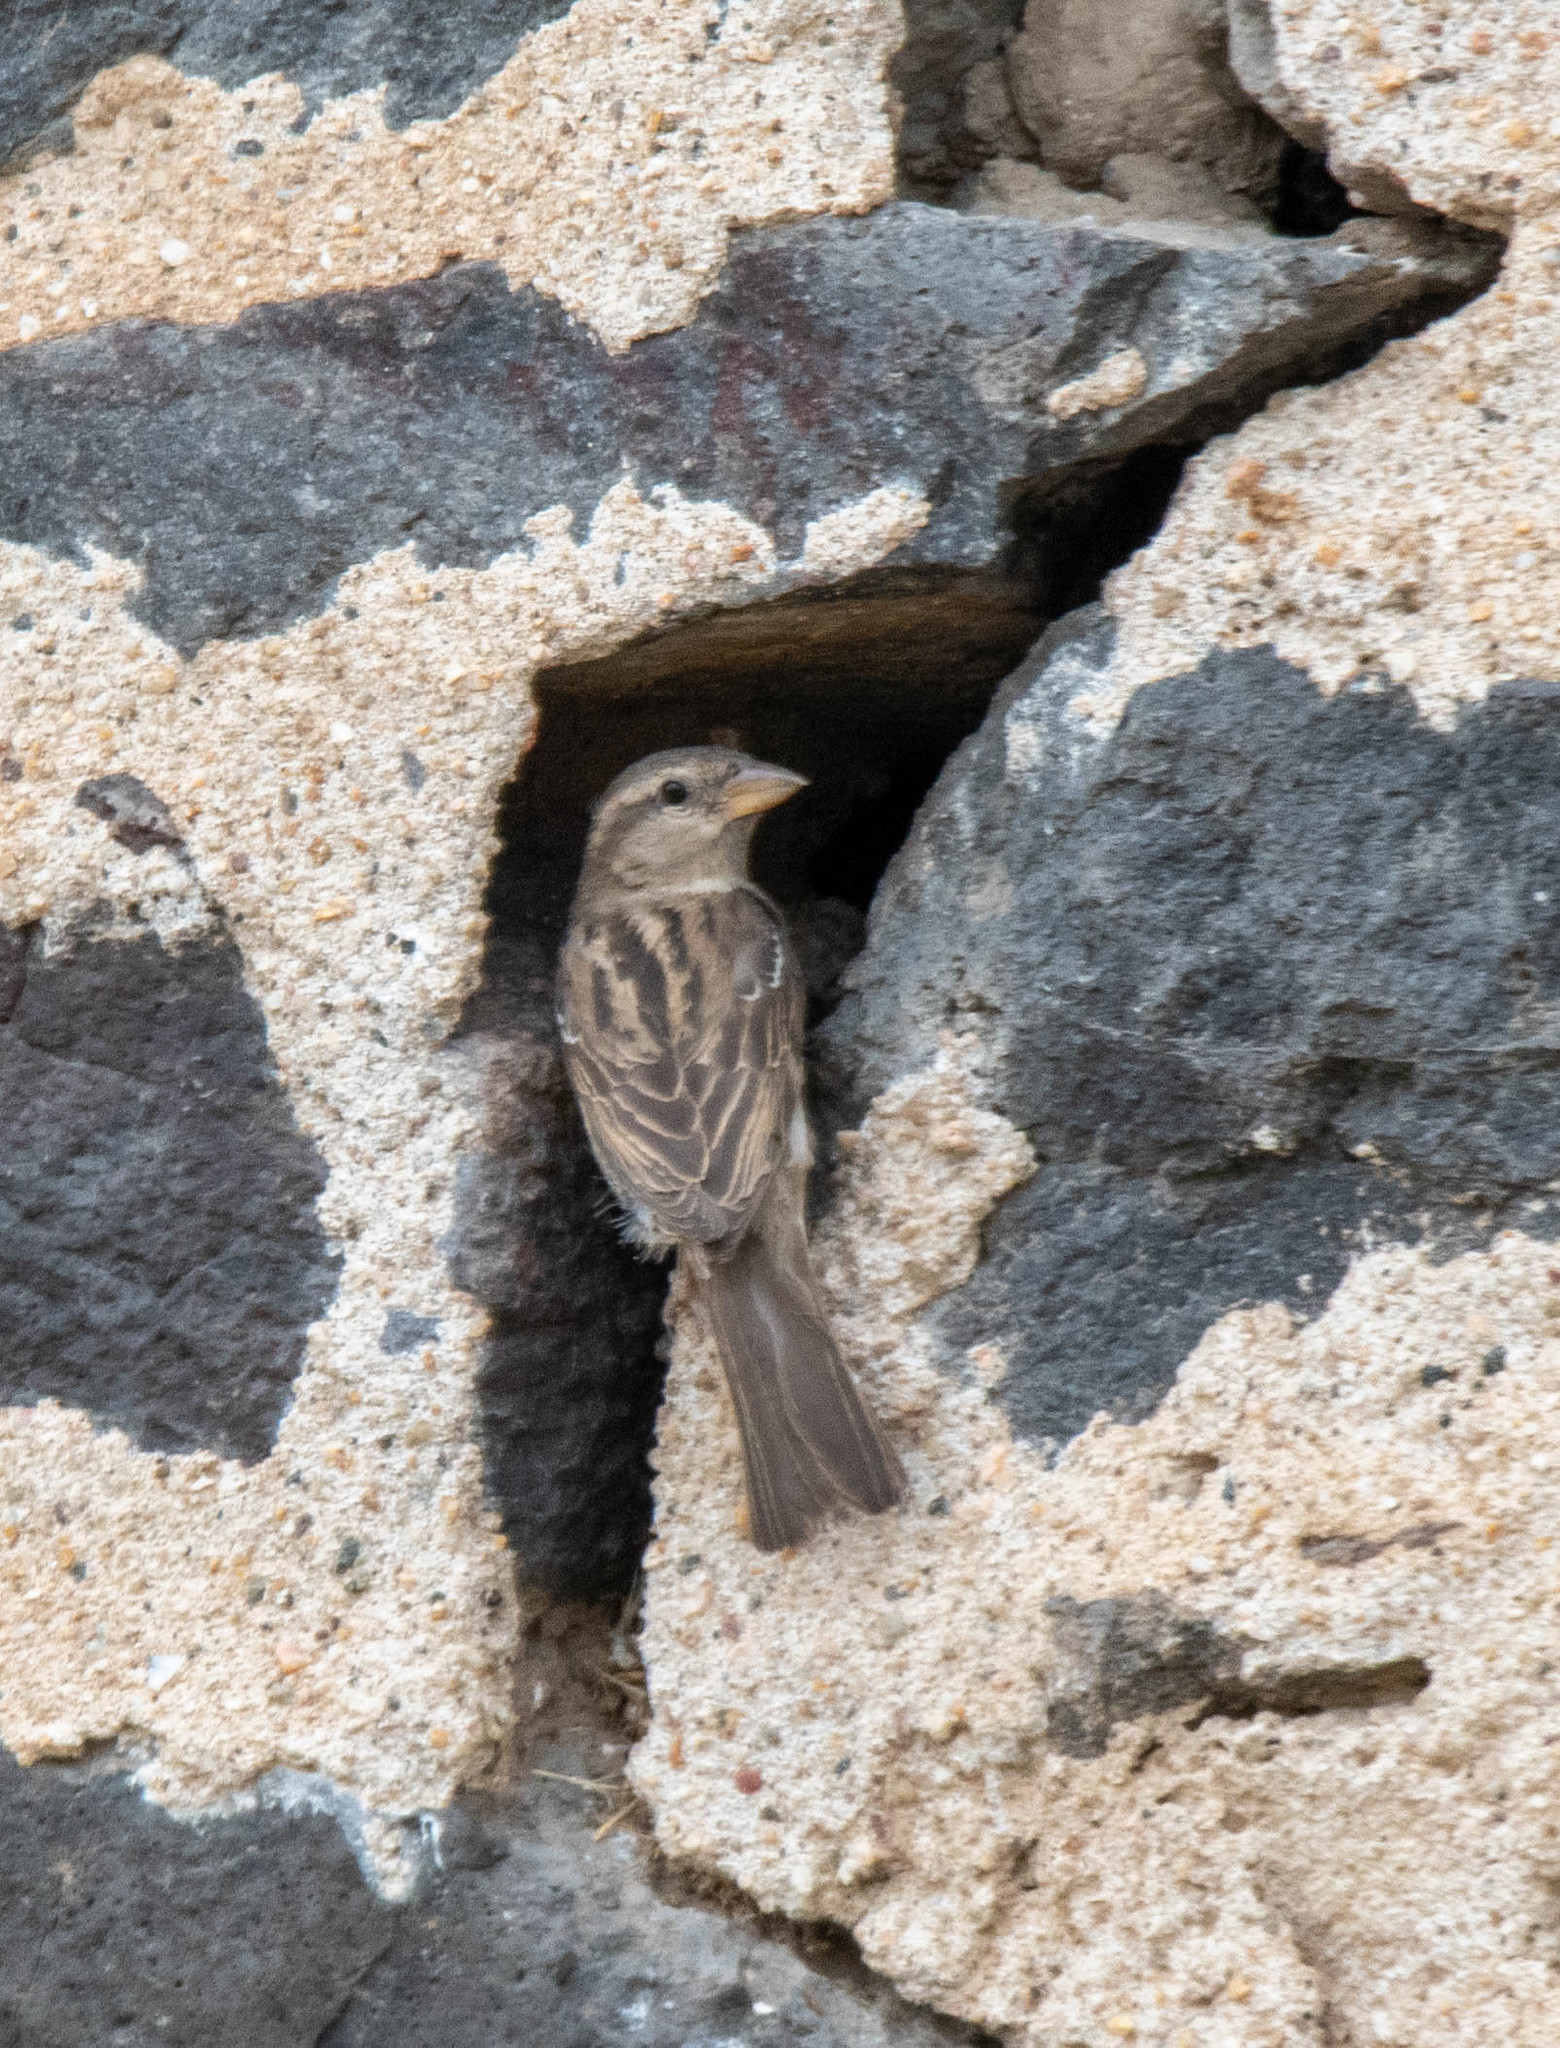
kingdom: Animalia
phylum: Chordata
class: Aves
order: Passeriformes
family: Passeridae
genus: Passer
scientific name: Passer domesticus
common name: House sparrow
